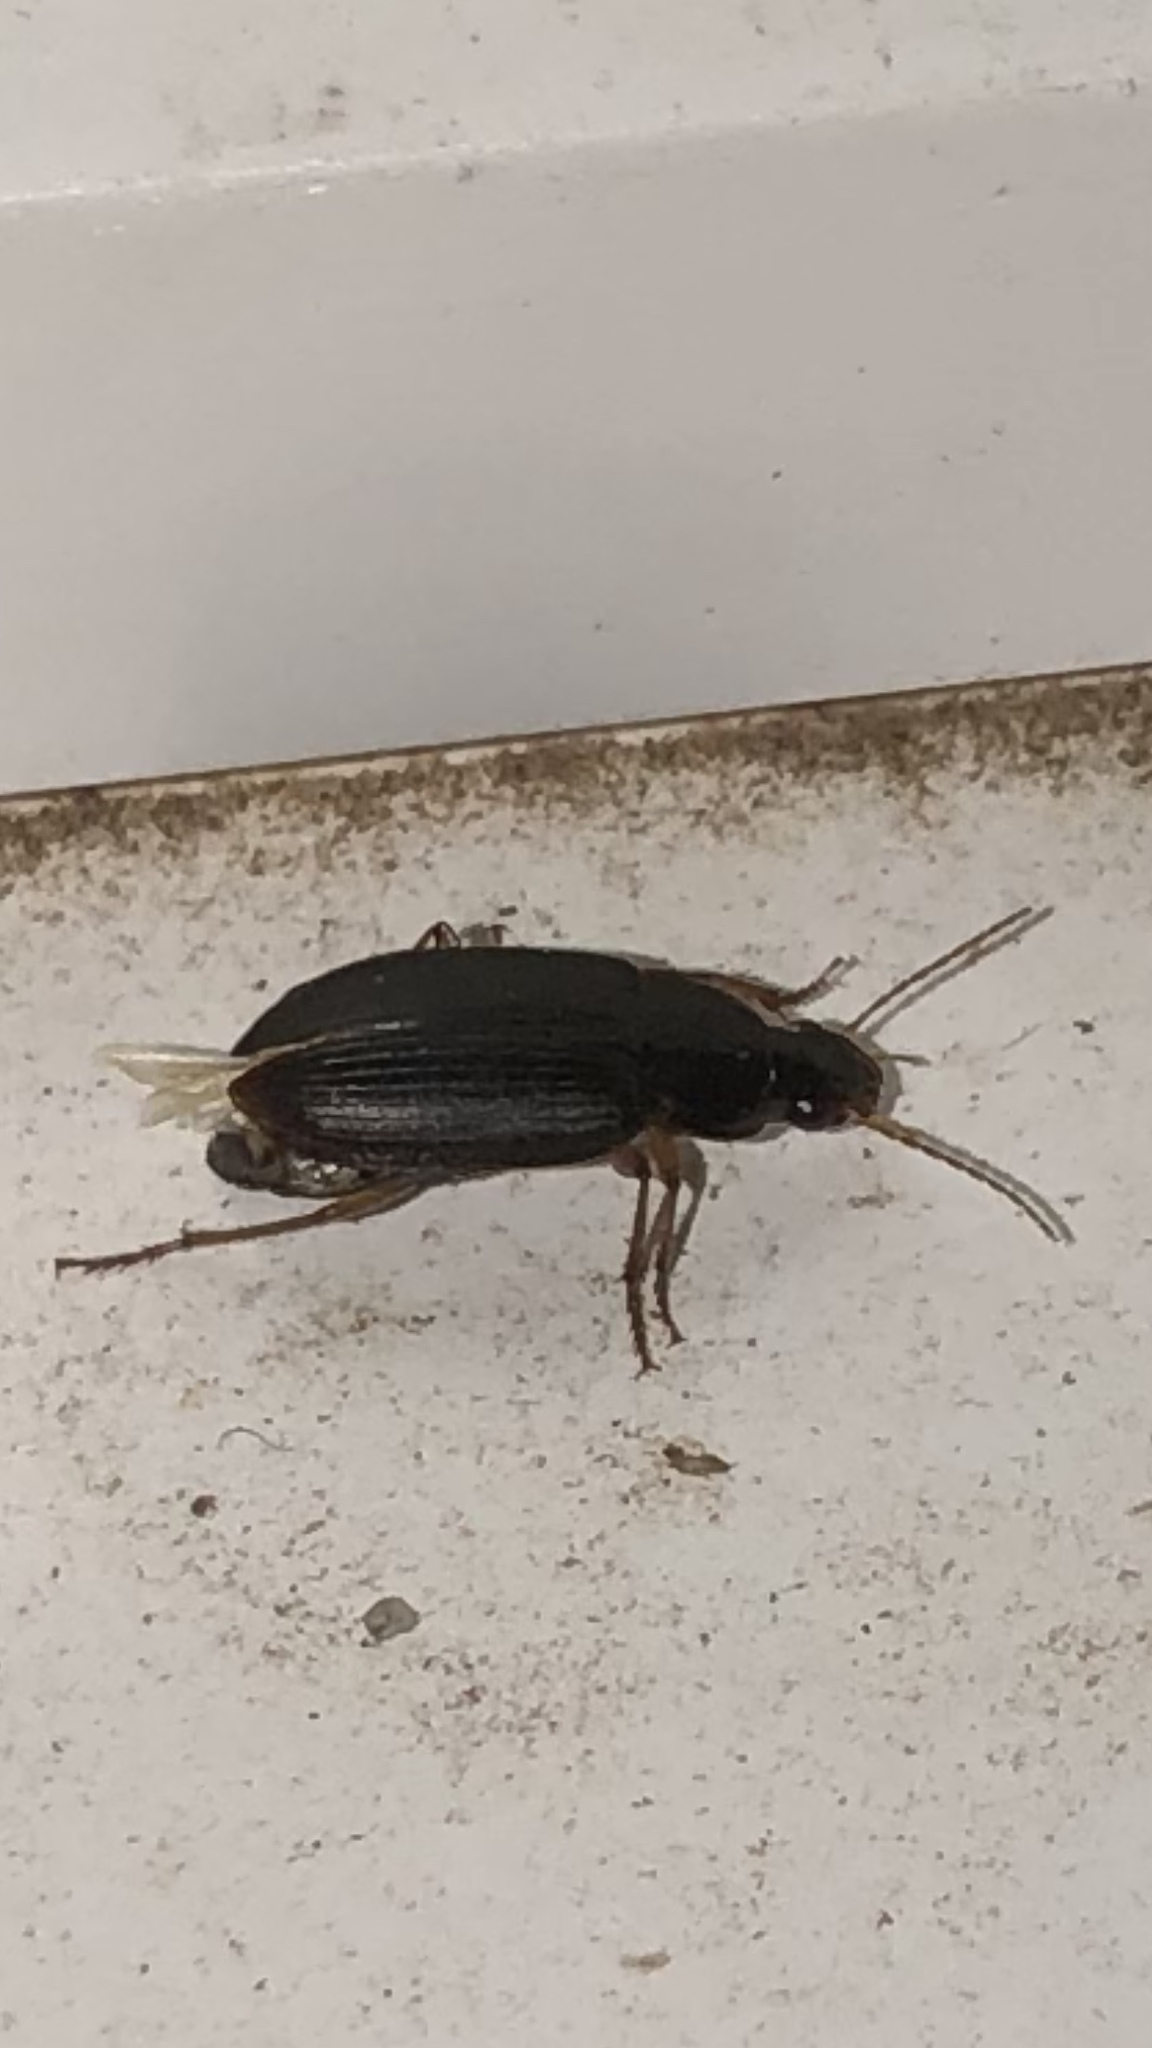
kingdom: Animalia
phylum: Arthropoda
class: Insecta
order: Coleoptera
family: Carabidae
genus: Notiobia
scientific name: Notiobia terminata
